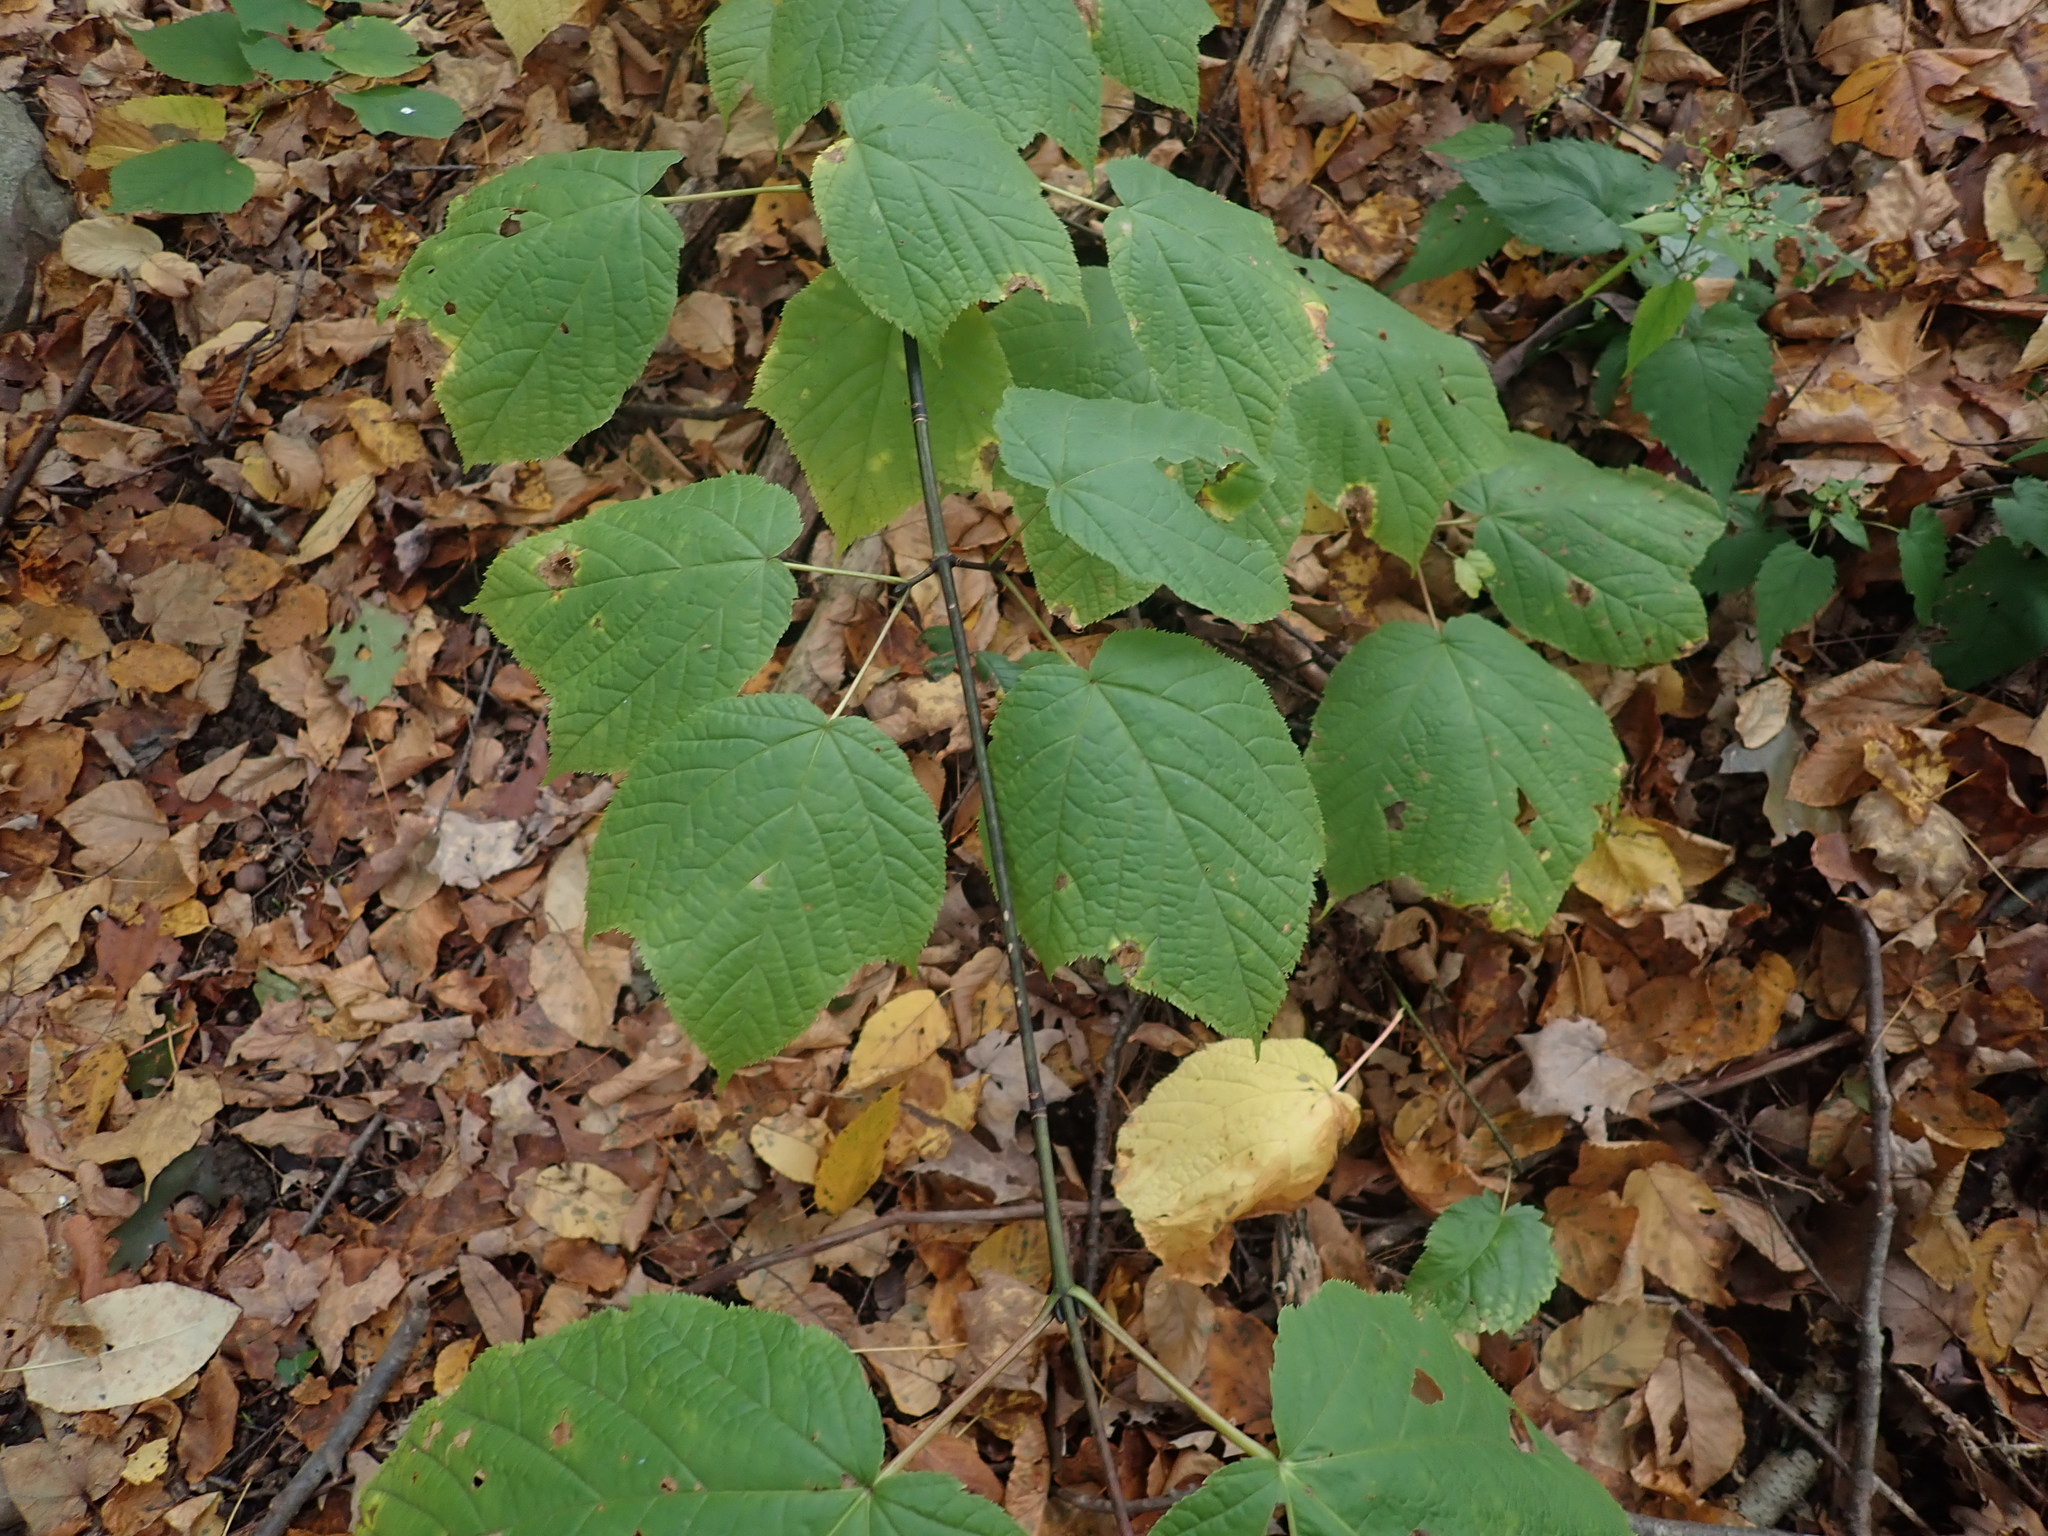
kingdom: Plantae
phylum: Tracheophyta
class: Magnoliopsida
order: Sapindales
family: Sapindaceae
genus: Acer
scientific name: Acer pensylvanicum
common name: Moosewood
